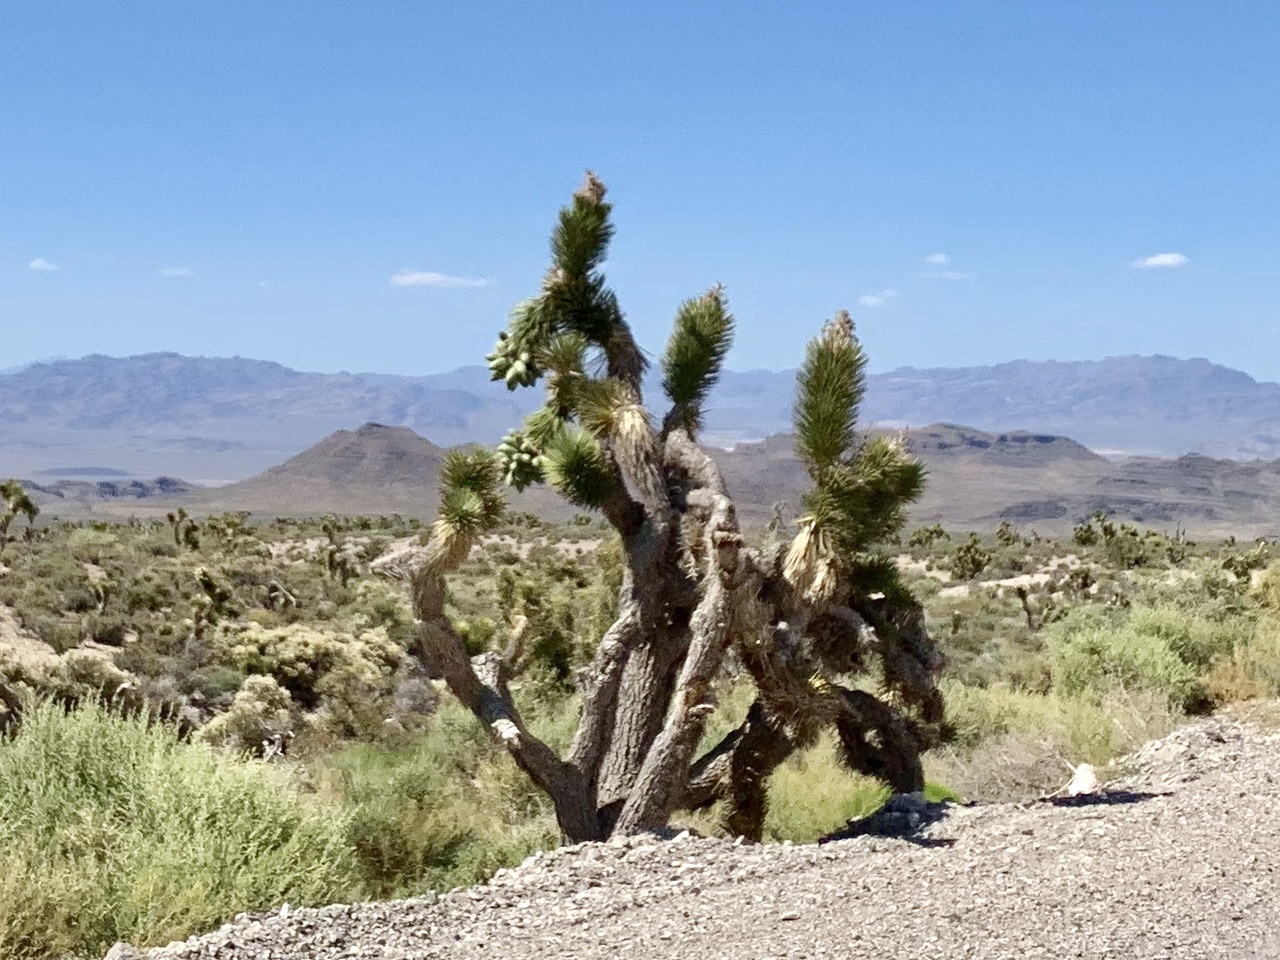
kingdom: Plantae
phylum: Tracheophyta
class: Liliopsida
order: Asparagales
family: Asparagaceae
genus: Yucca
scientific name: Yucca brevifolia
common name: Joshua tree
